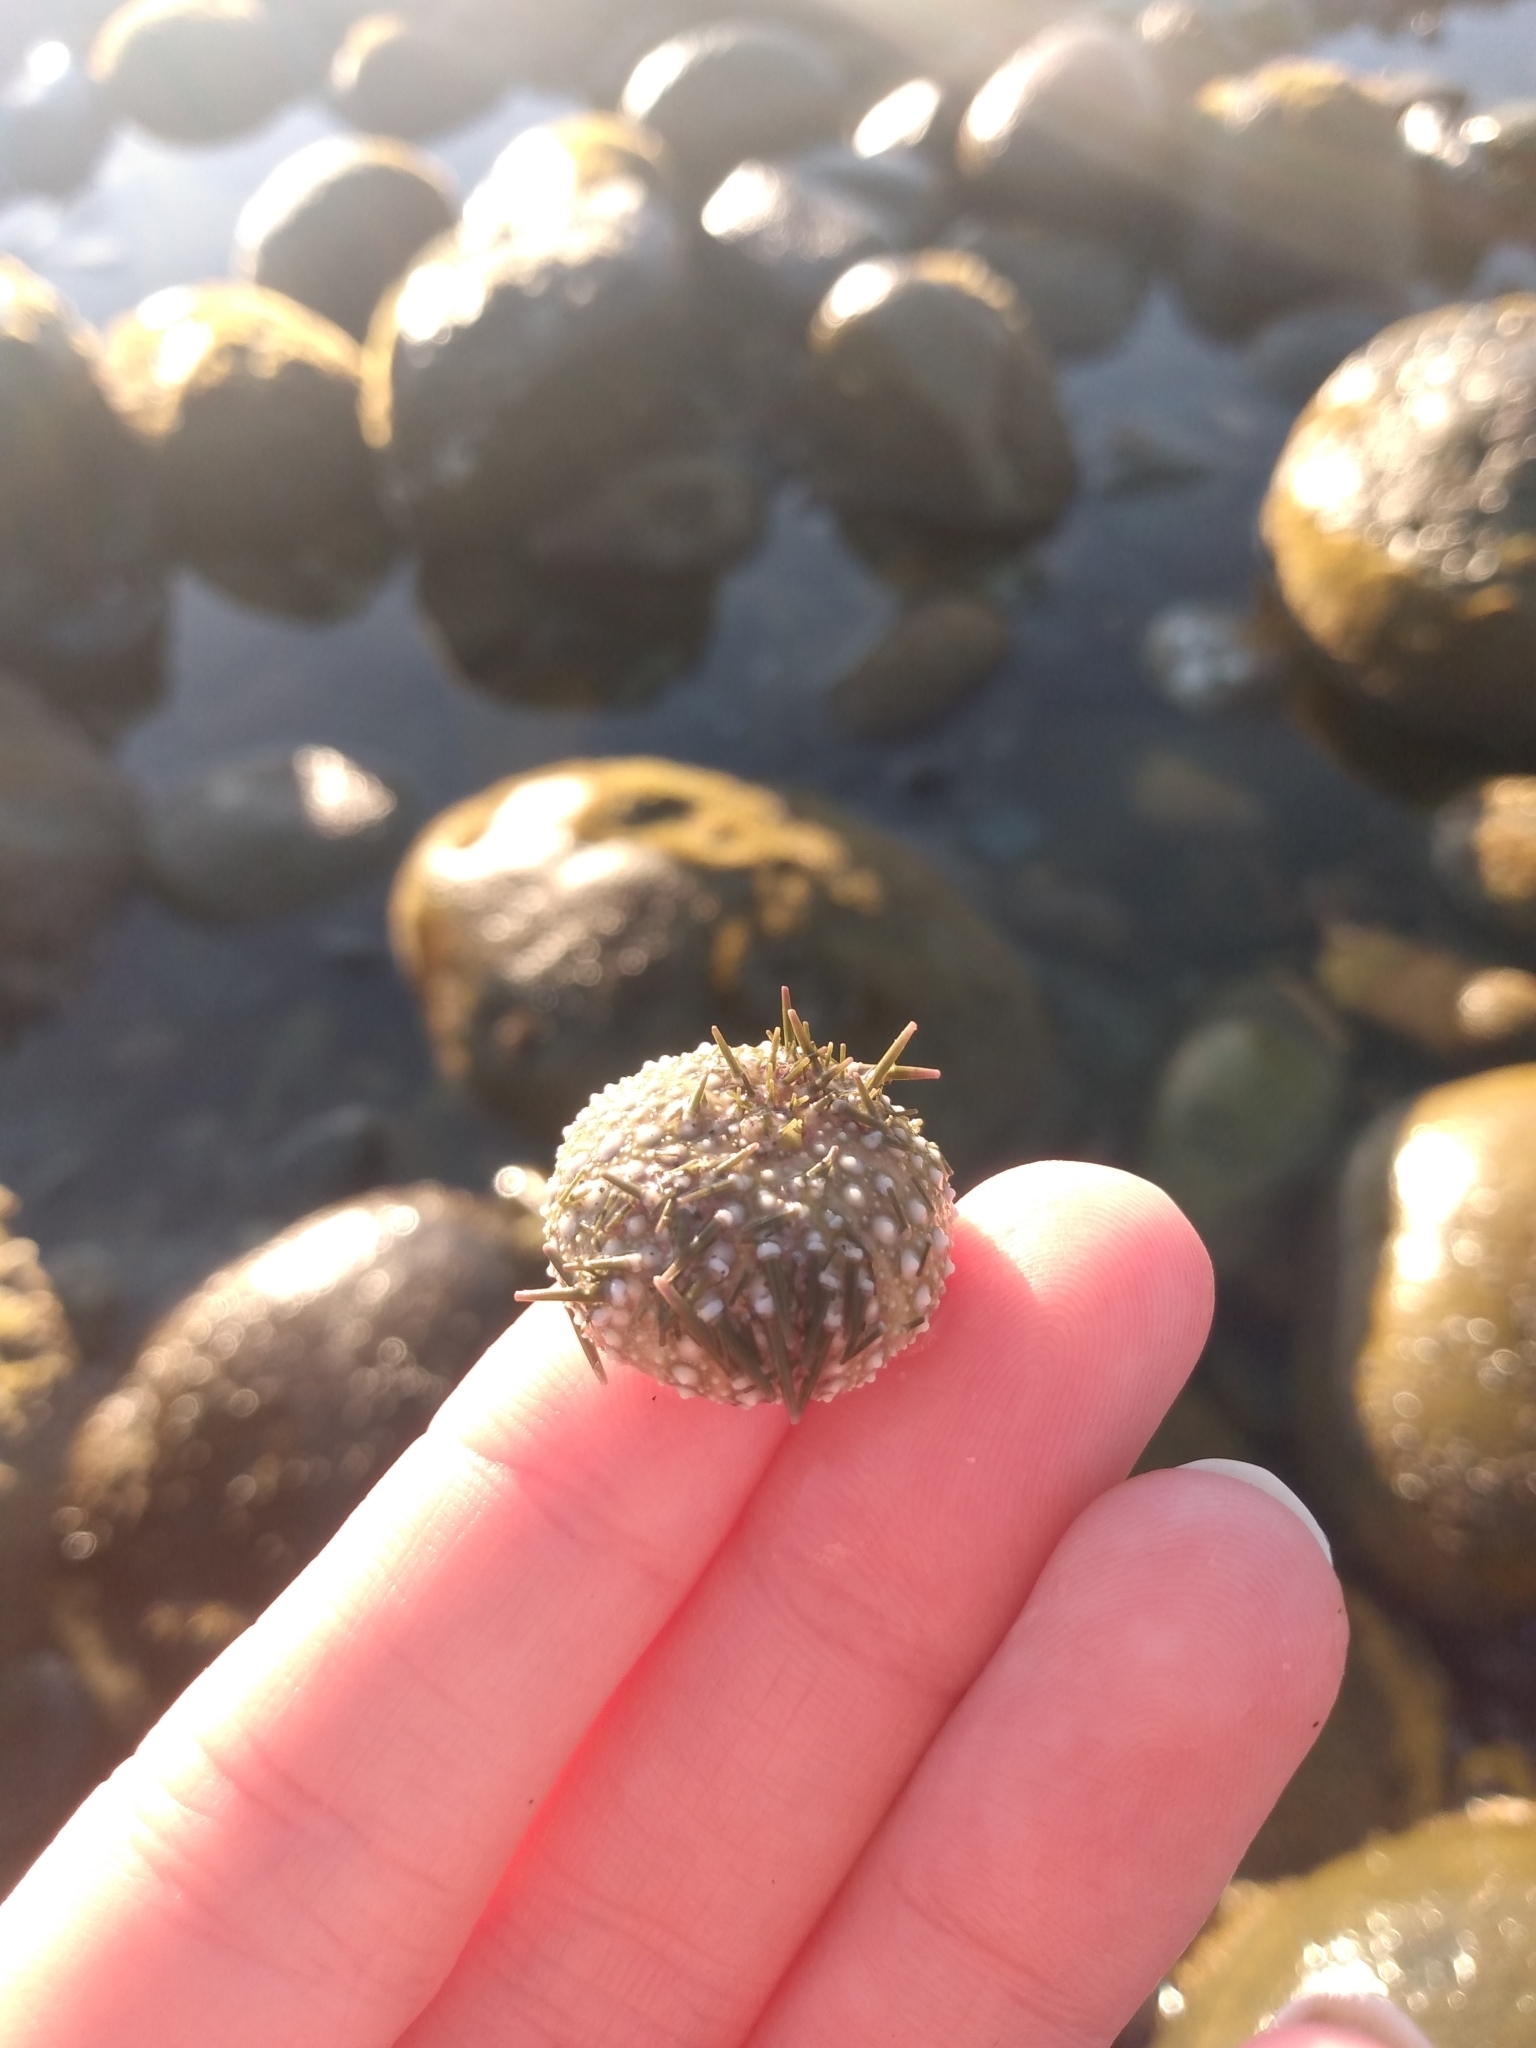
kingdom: Animalia
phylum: Echinodermata
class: Echinoidea
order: Camarodonta
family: Strongylocentrotidae
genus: Strongylocentrotus
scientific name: Strongylocentrotus purpuratus
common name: Purple sea urchin
